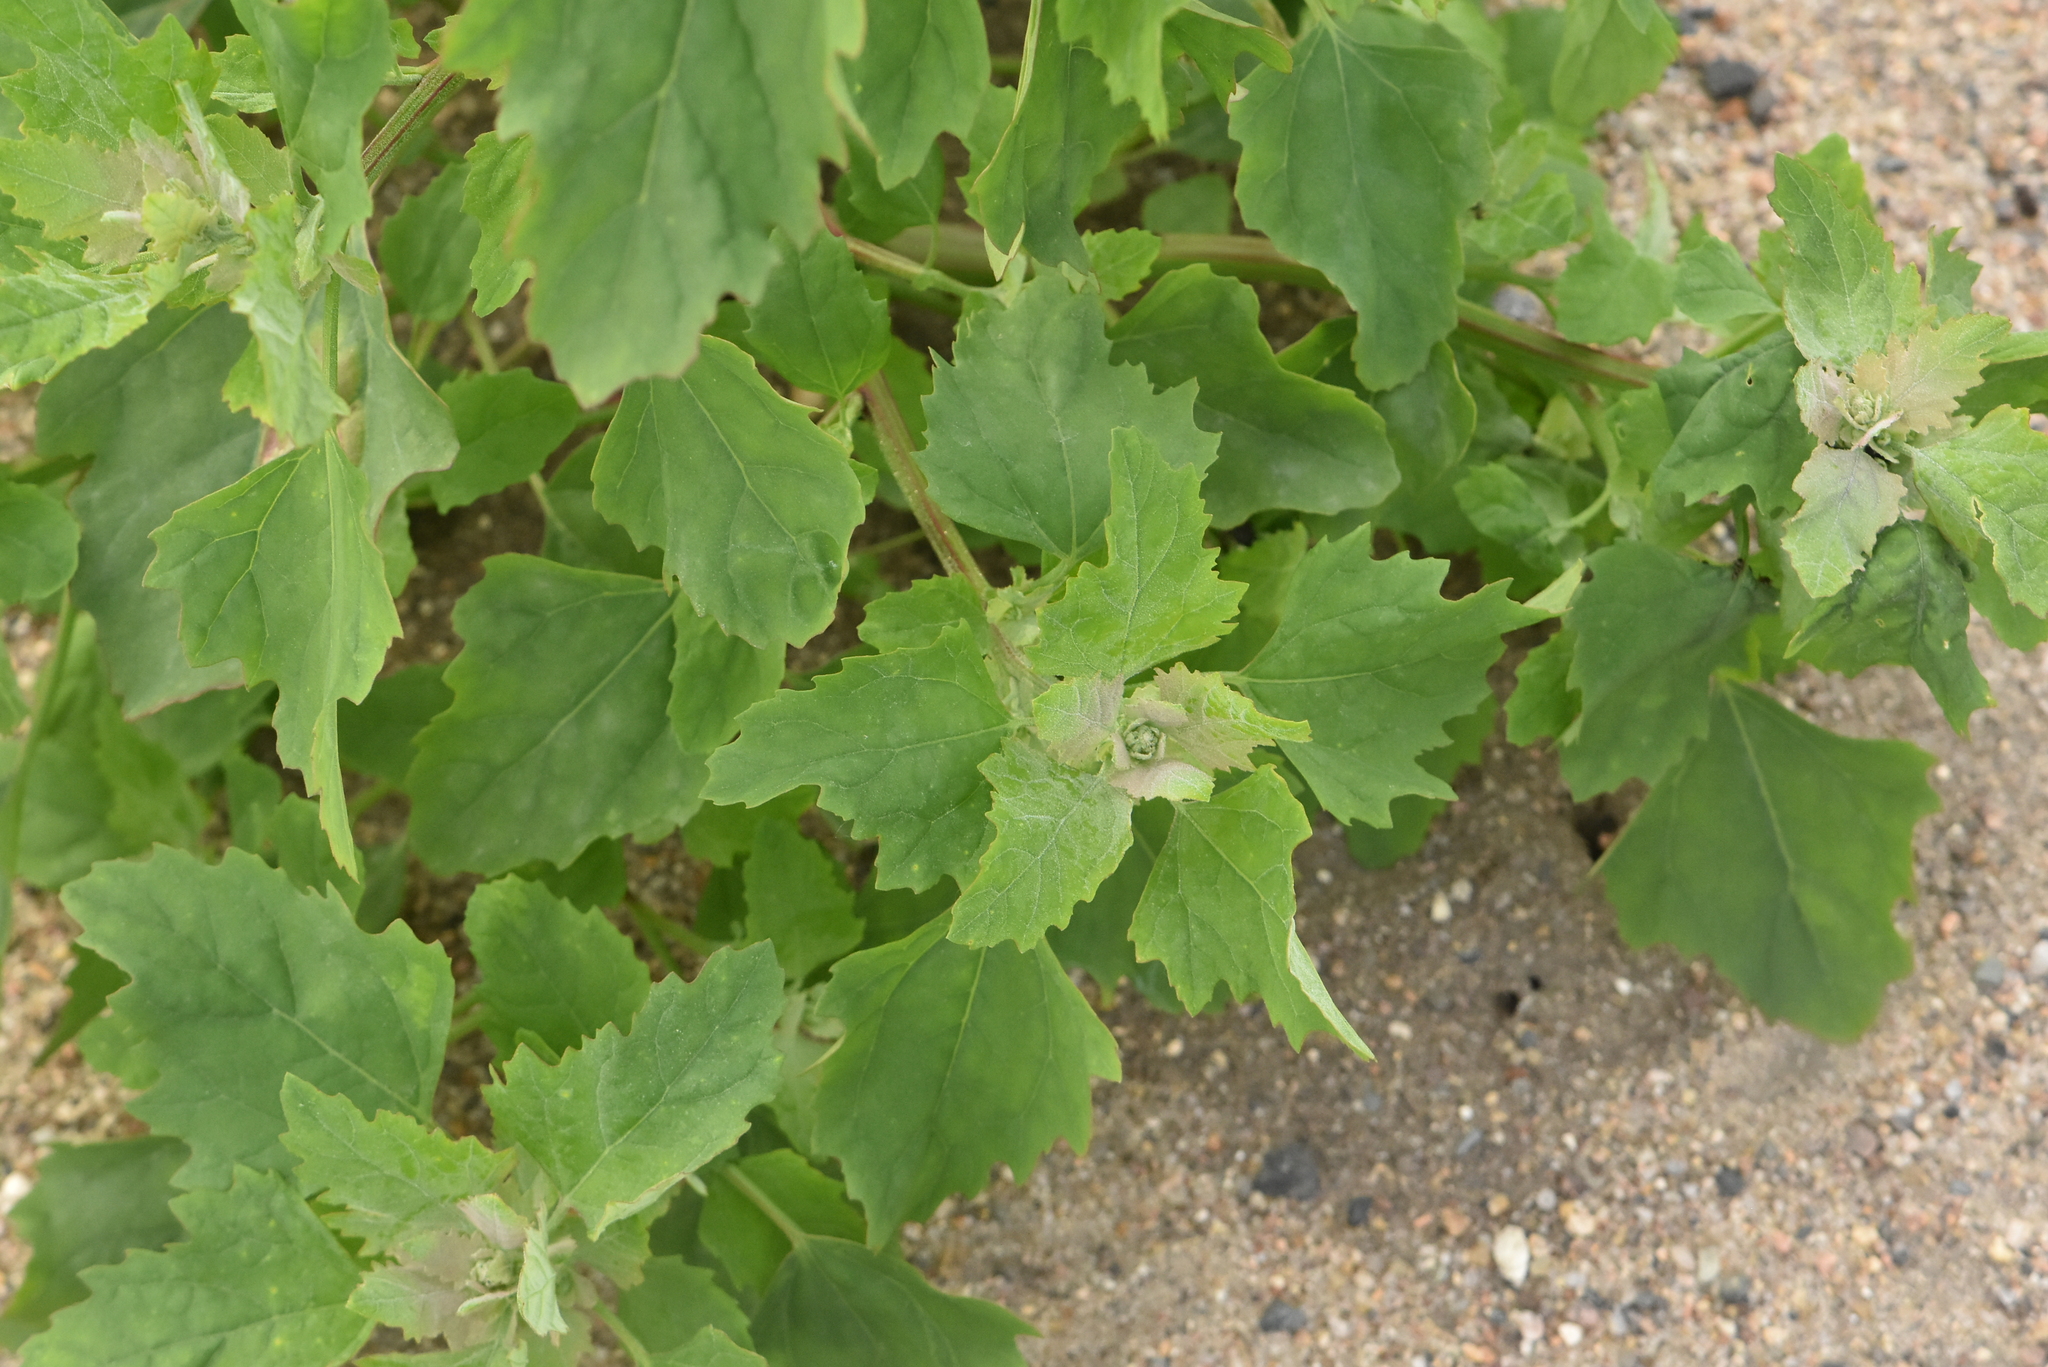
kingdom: Plantae
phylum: Tracheophyta
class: Magnoliopsida
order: Caryophyllales
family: Amaranthaceae
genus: Chenopodium
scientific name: Chenopodium album
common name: Fat-hen
